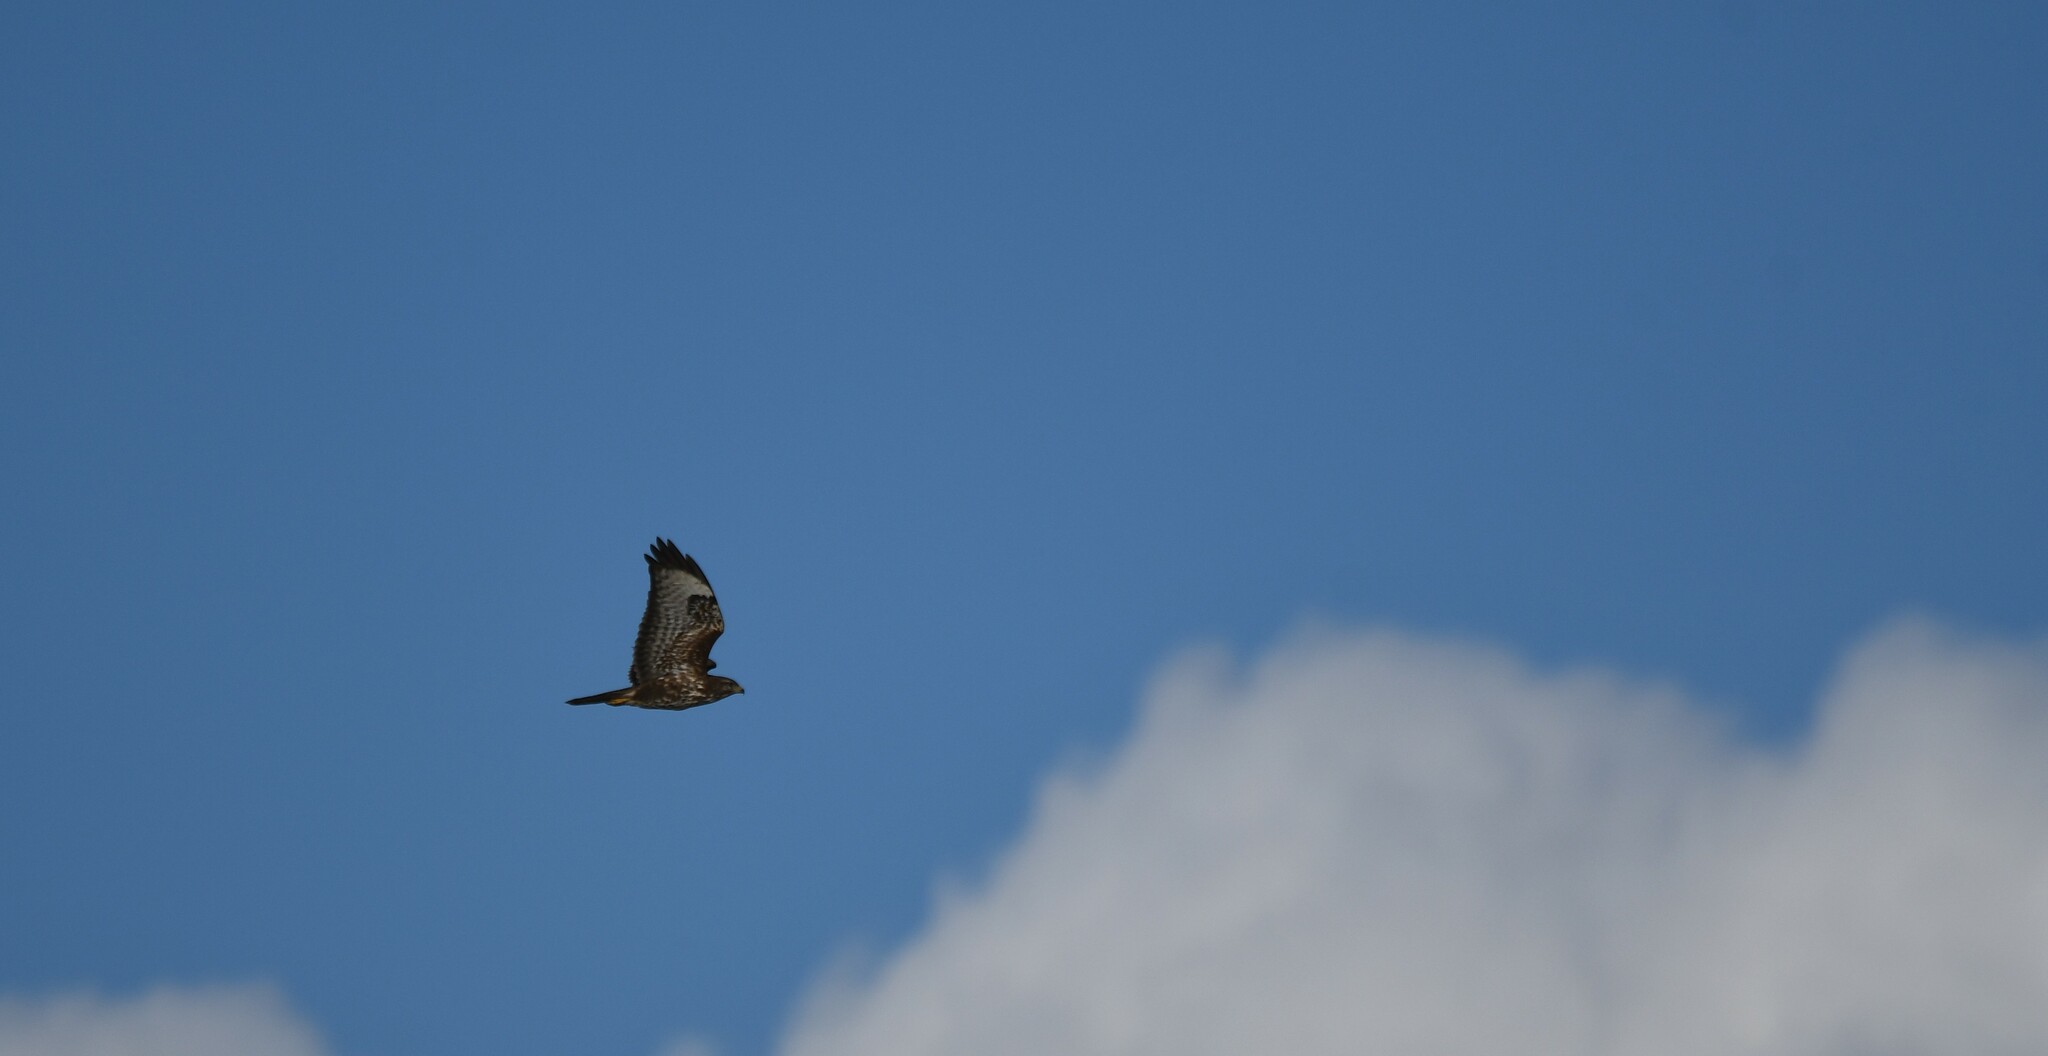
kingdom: Animalia
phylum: Chordata
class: Aves
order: Accipitriformes
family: Accipitridae
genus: Buteo
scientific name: Buteo buteo
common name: Common buzzard
